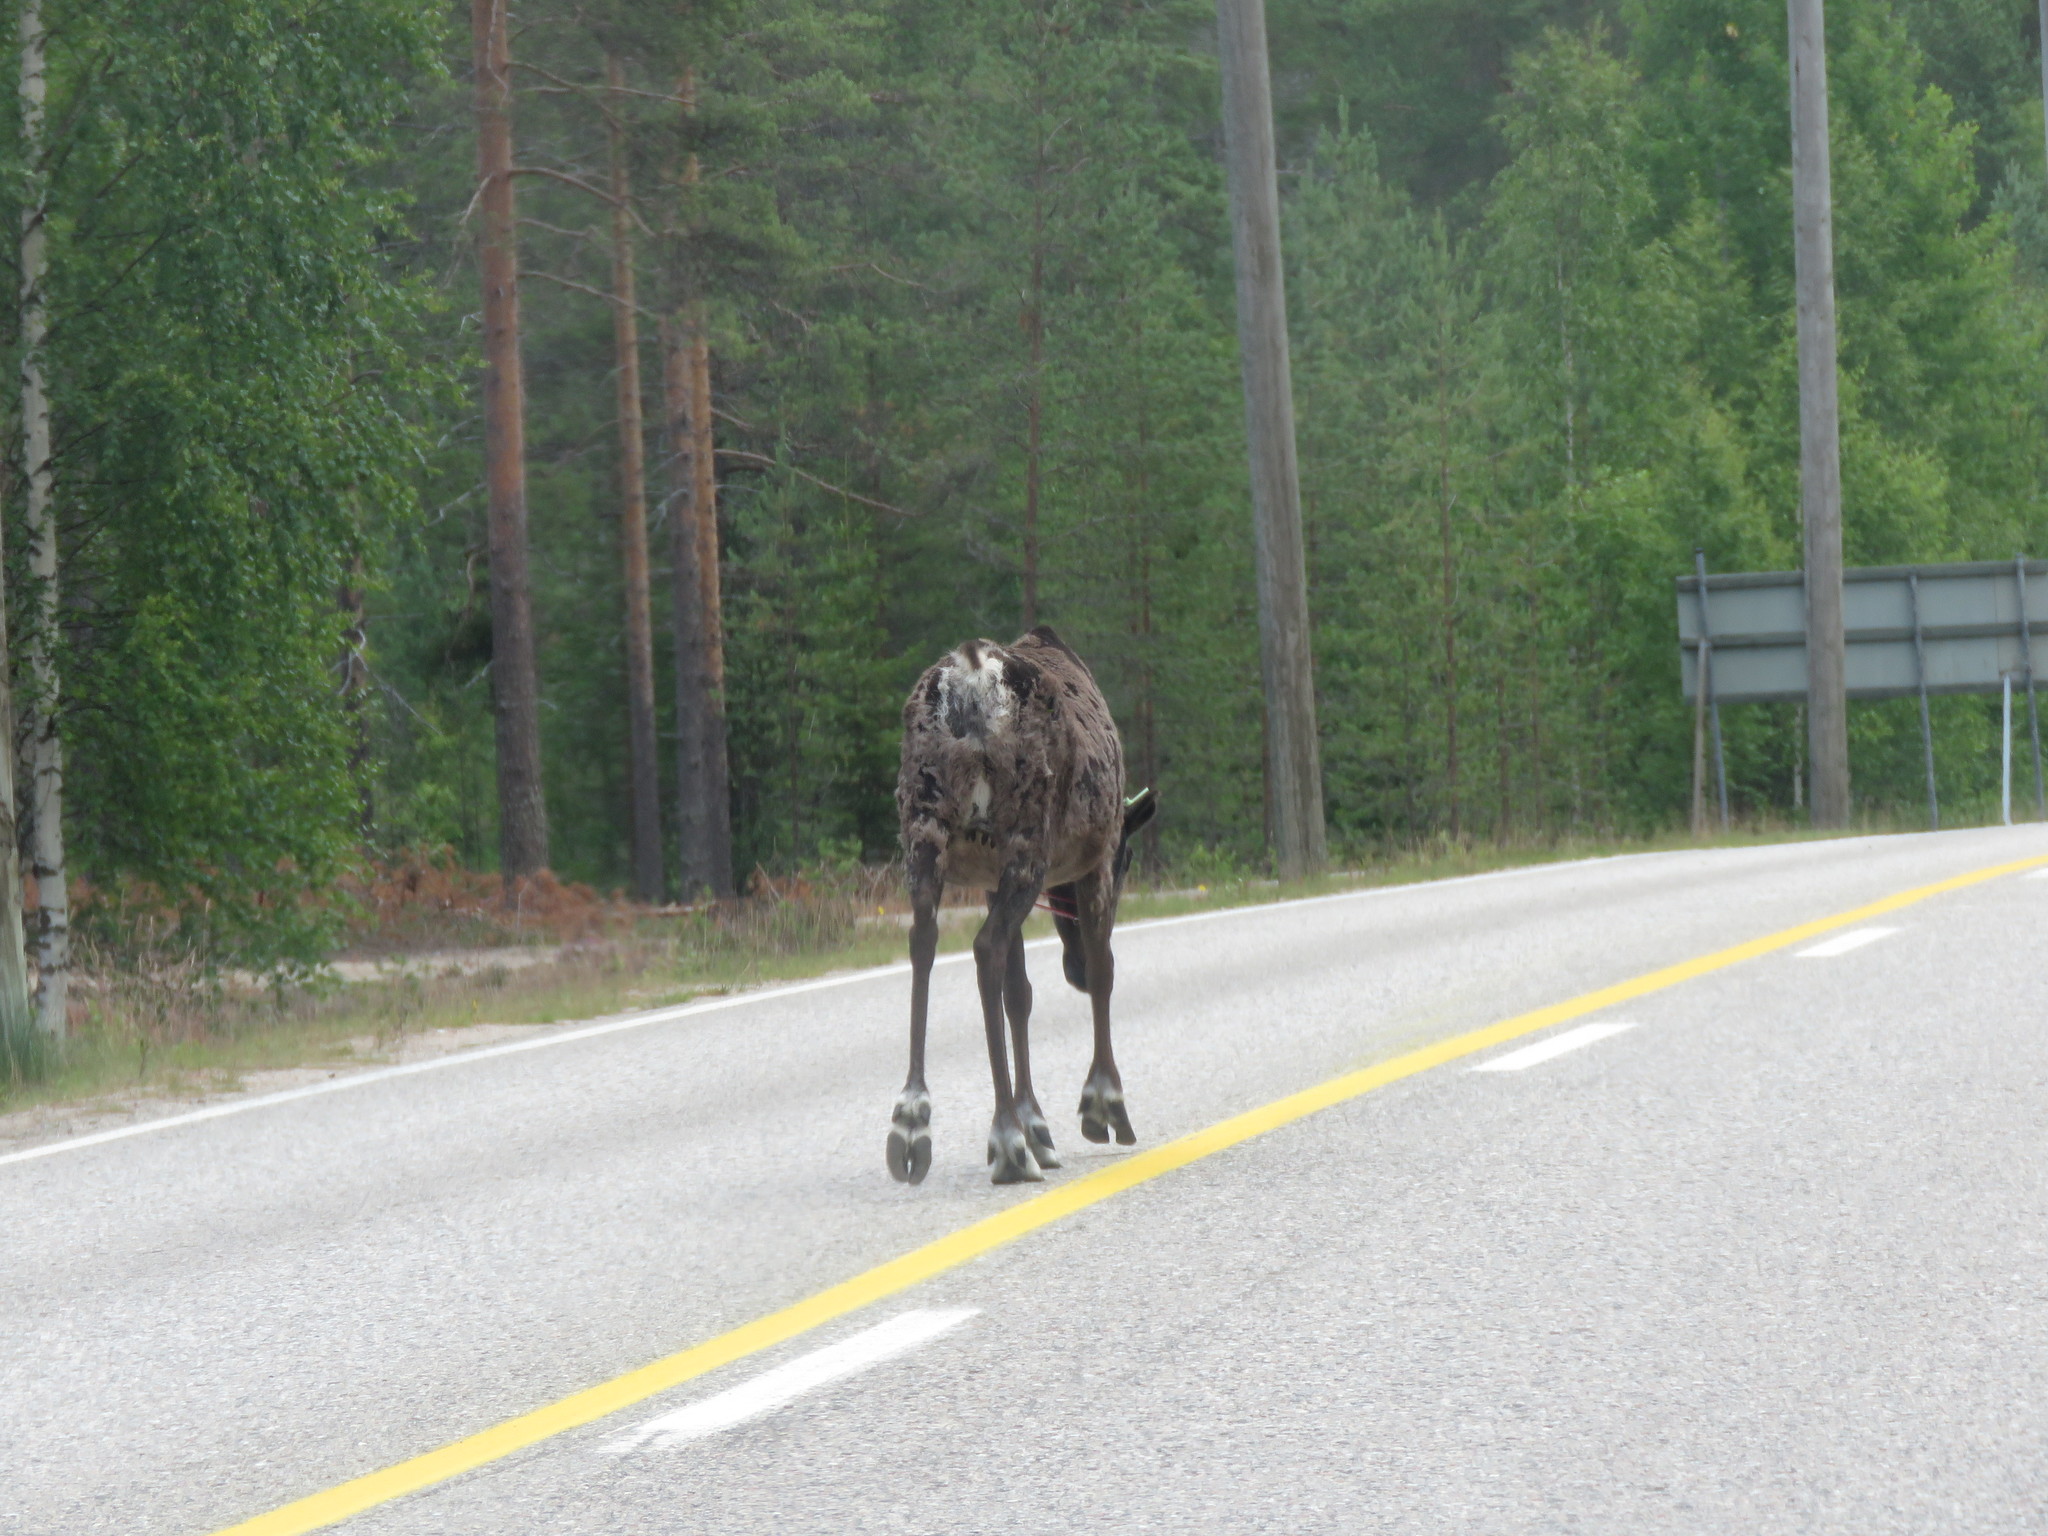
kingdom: Animalia
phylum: Chordata
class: Mammalia
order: Artiodactyla
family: Cervidae
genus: Rangifer
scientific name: Rangifer tarandus
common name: Reindeer
